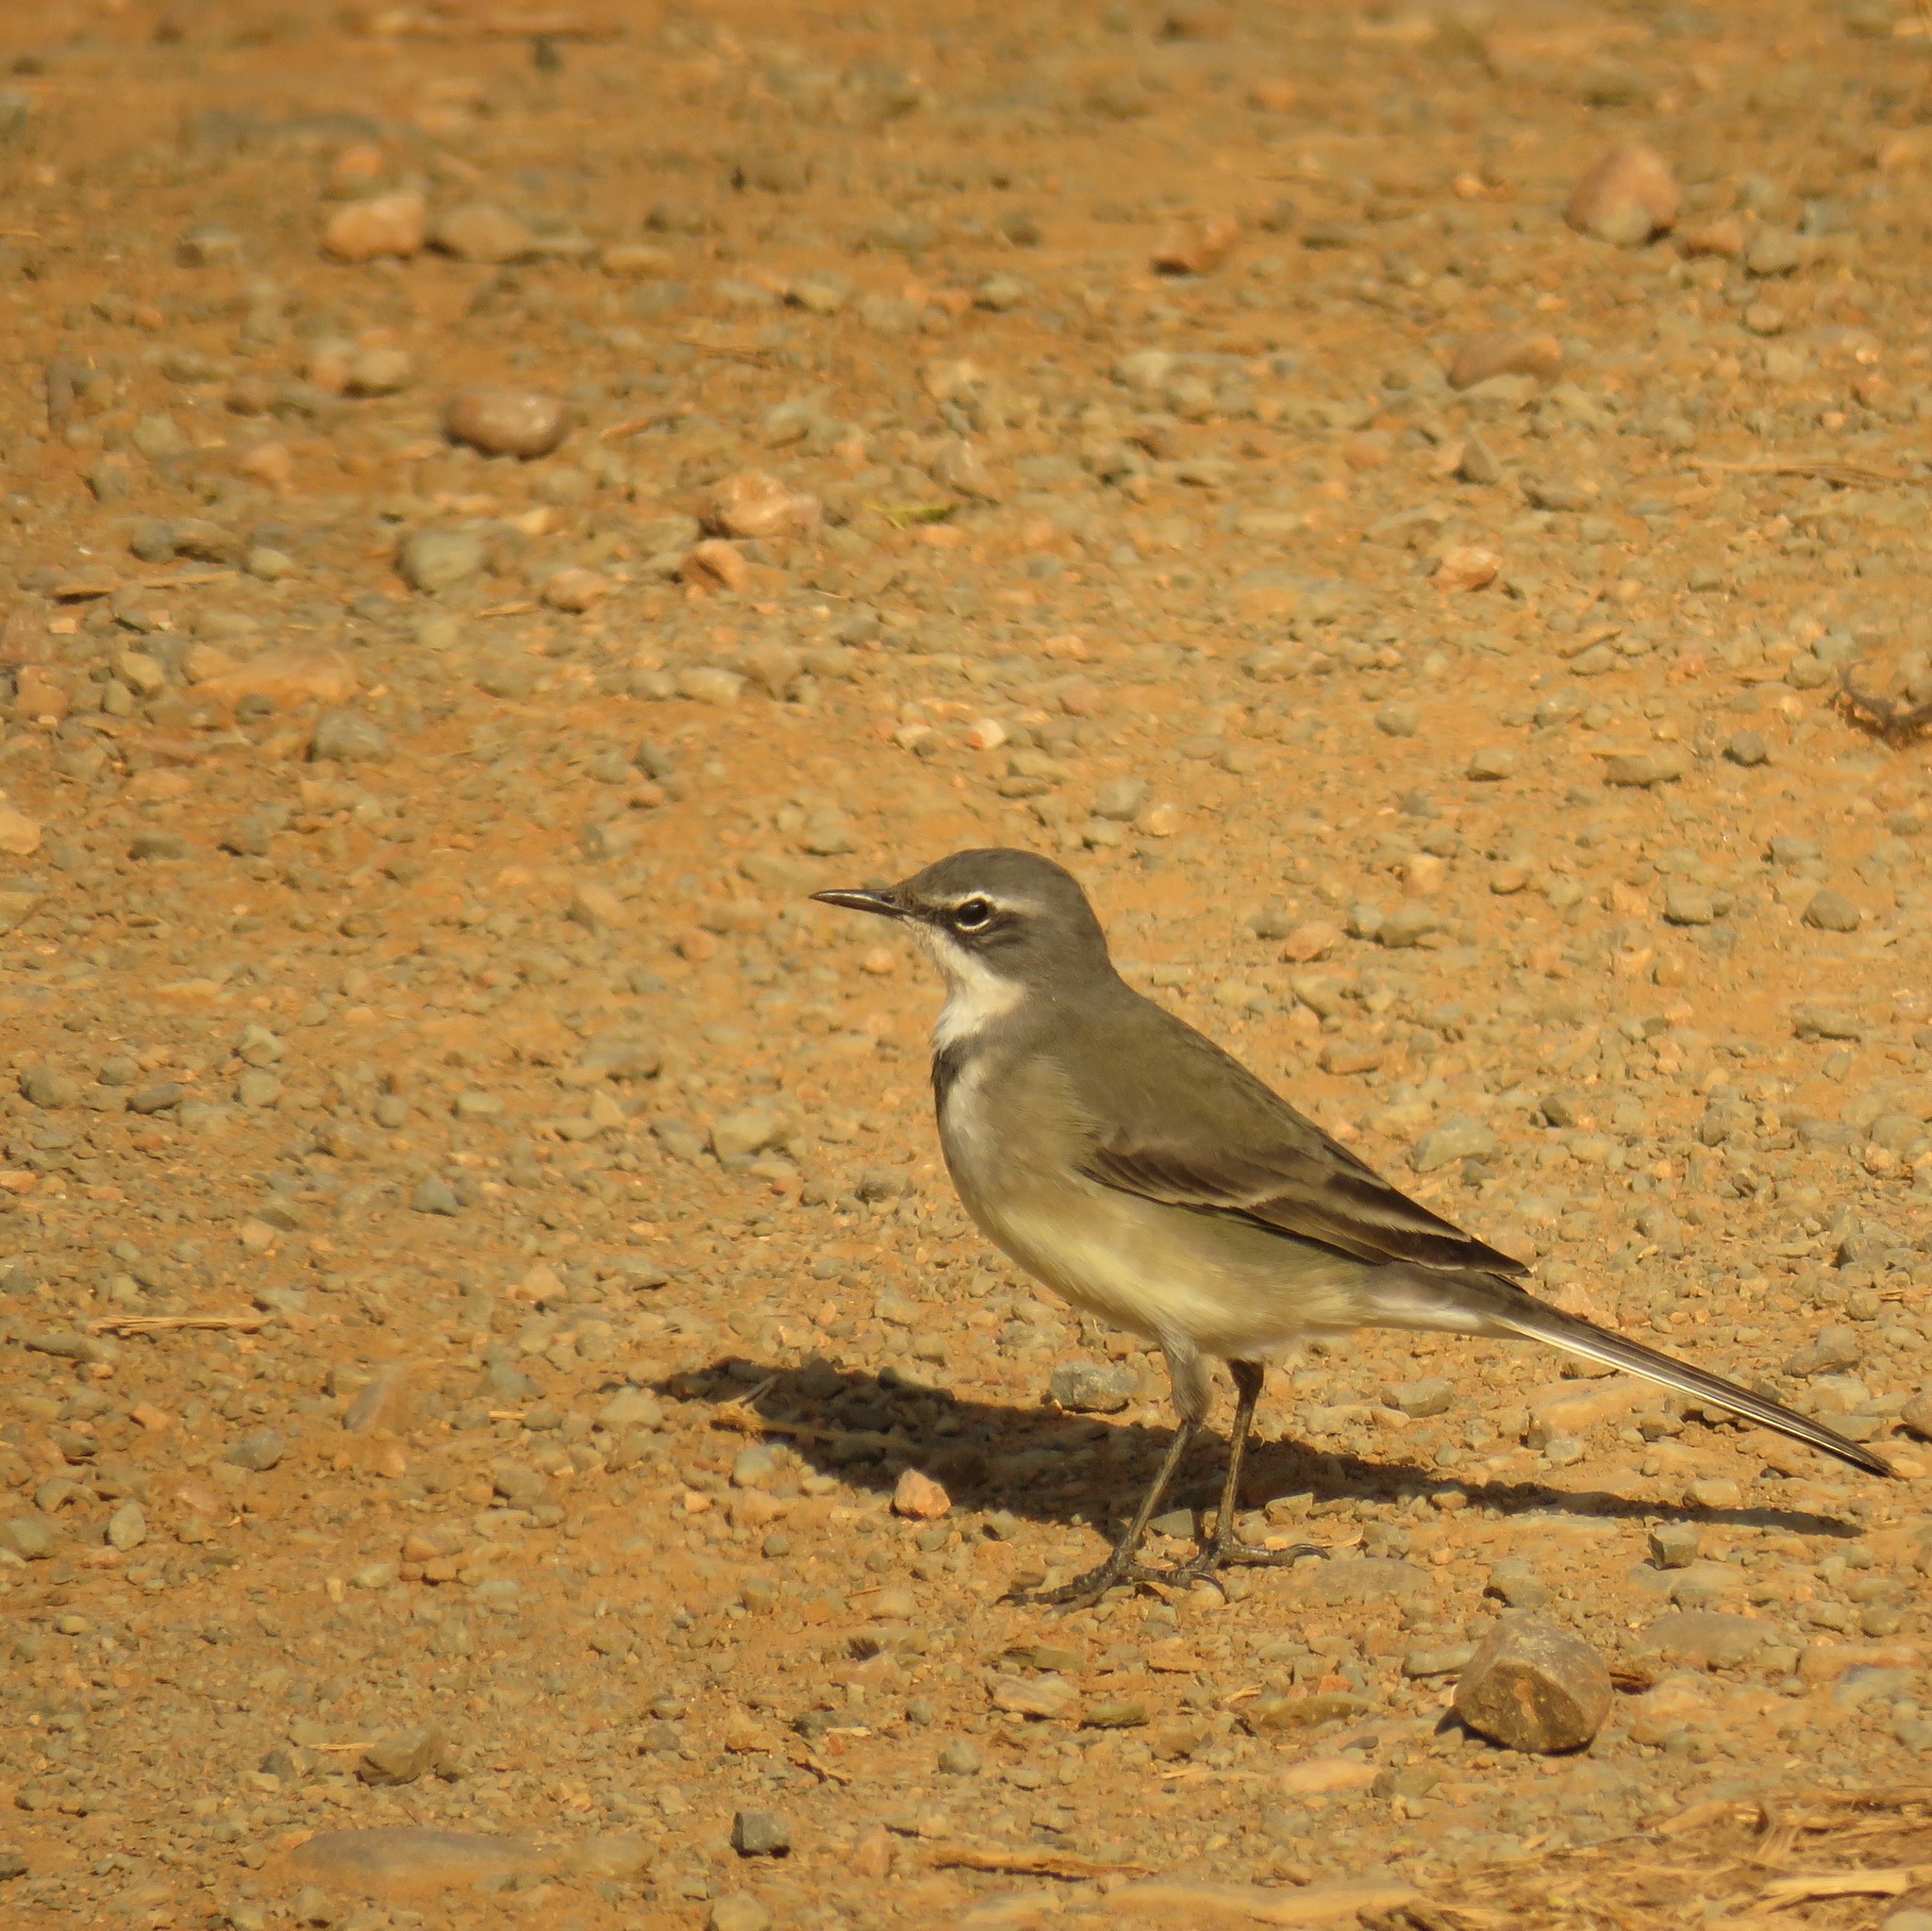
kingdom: Animalia
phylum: Chordata
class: Aves
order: Passeriformes
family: Motacillidae
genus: Motacilla
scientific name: Motacilla capensis
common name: Cape wagtail
